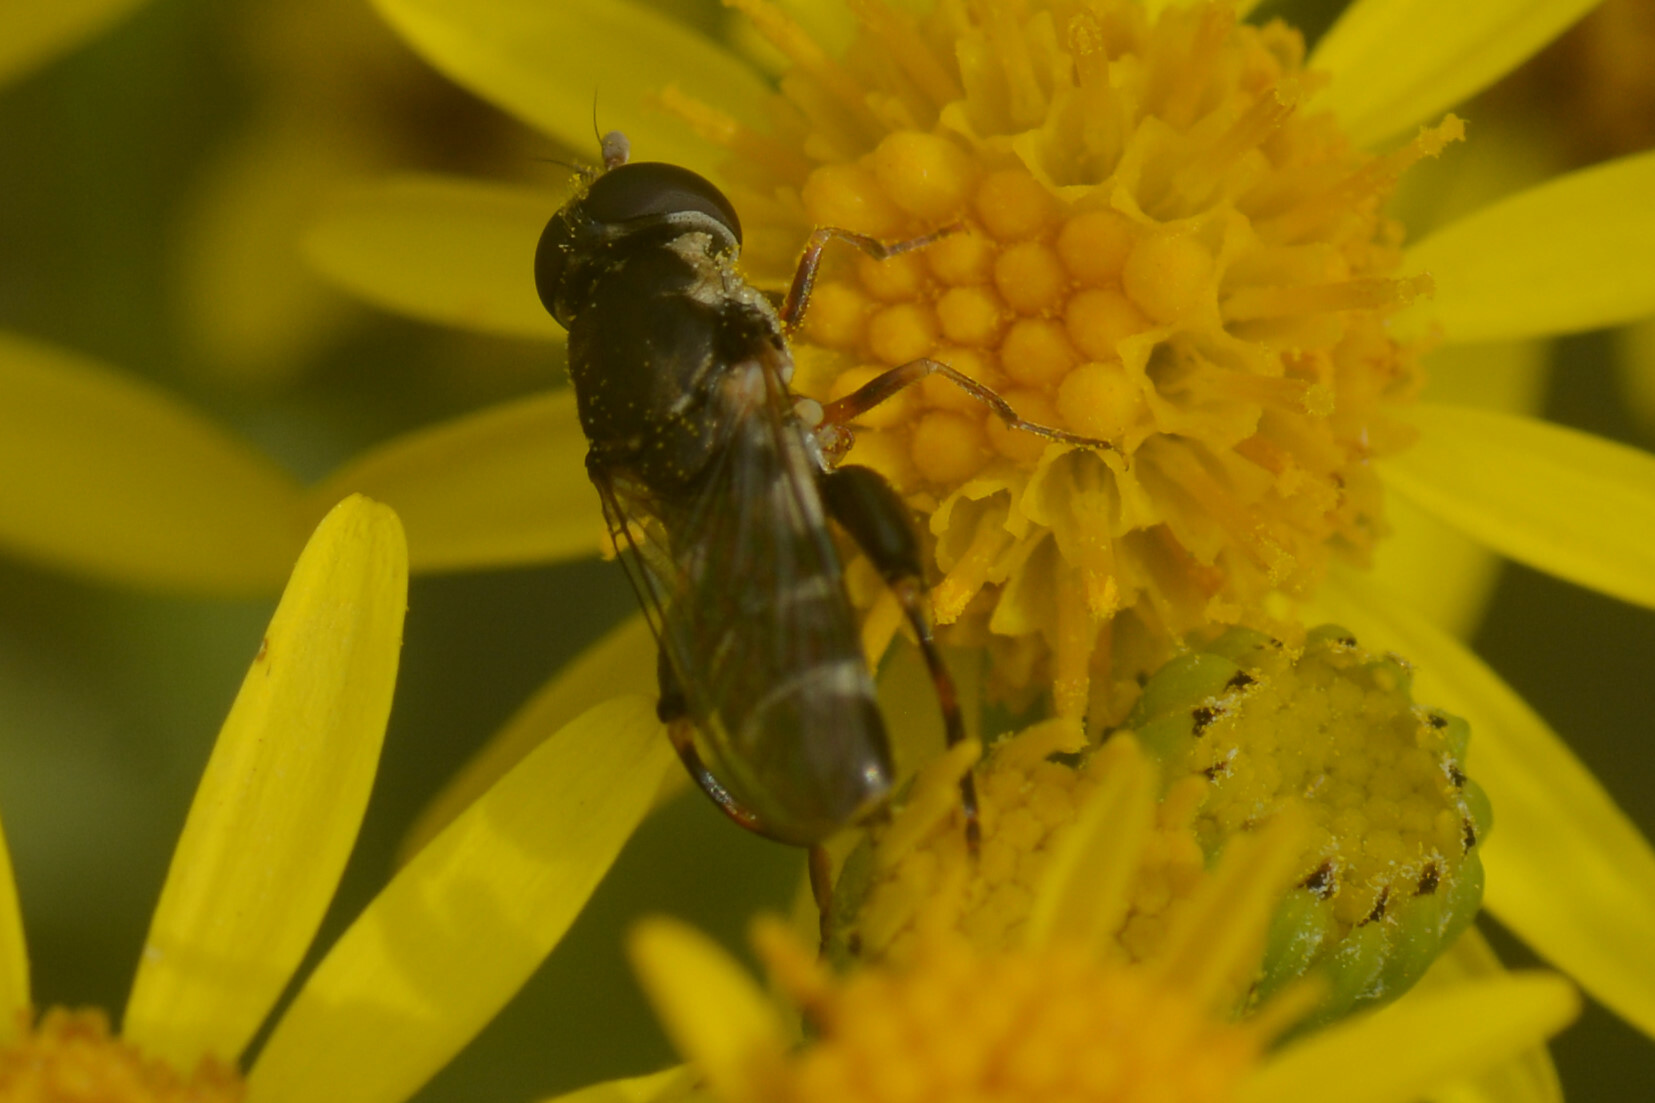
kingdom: Animalia
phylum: Arthropoda
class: Insecta
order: Diptera
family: Syrphidae
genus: Syritta
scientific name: Syritta pipiens
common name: Hover fly
